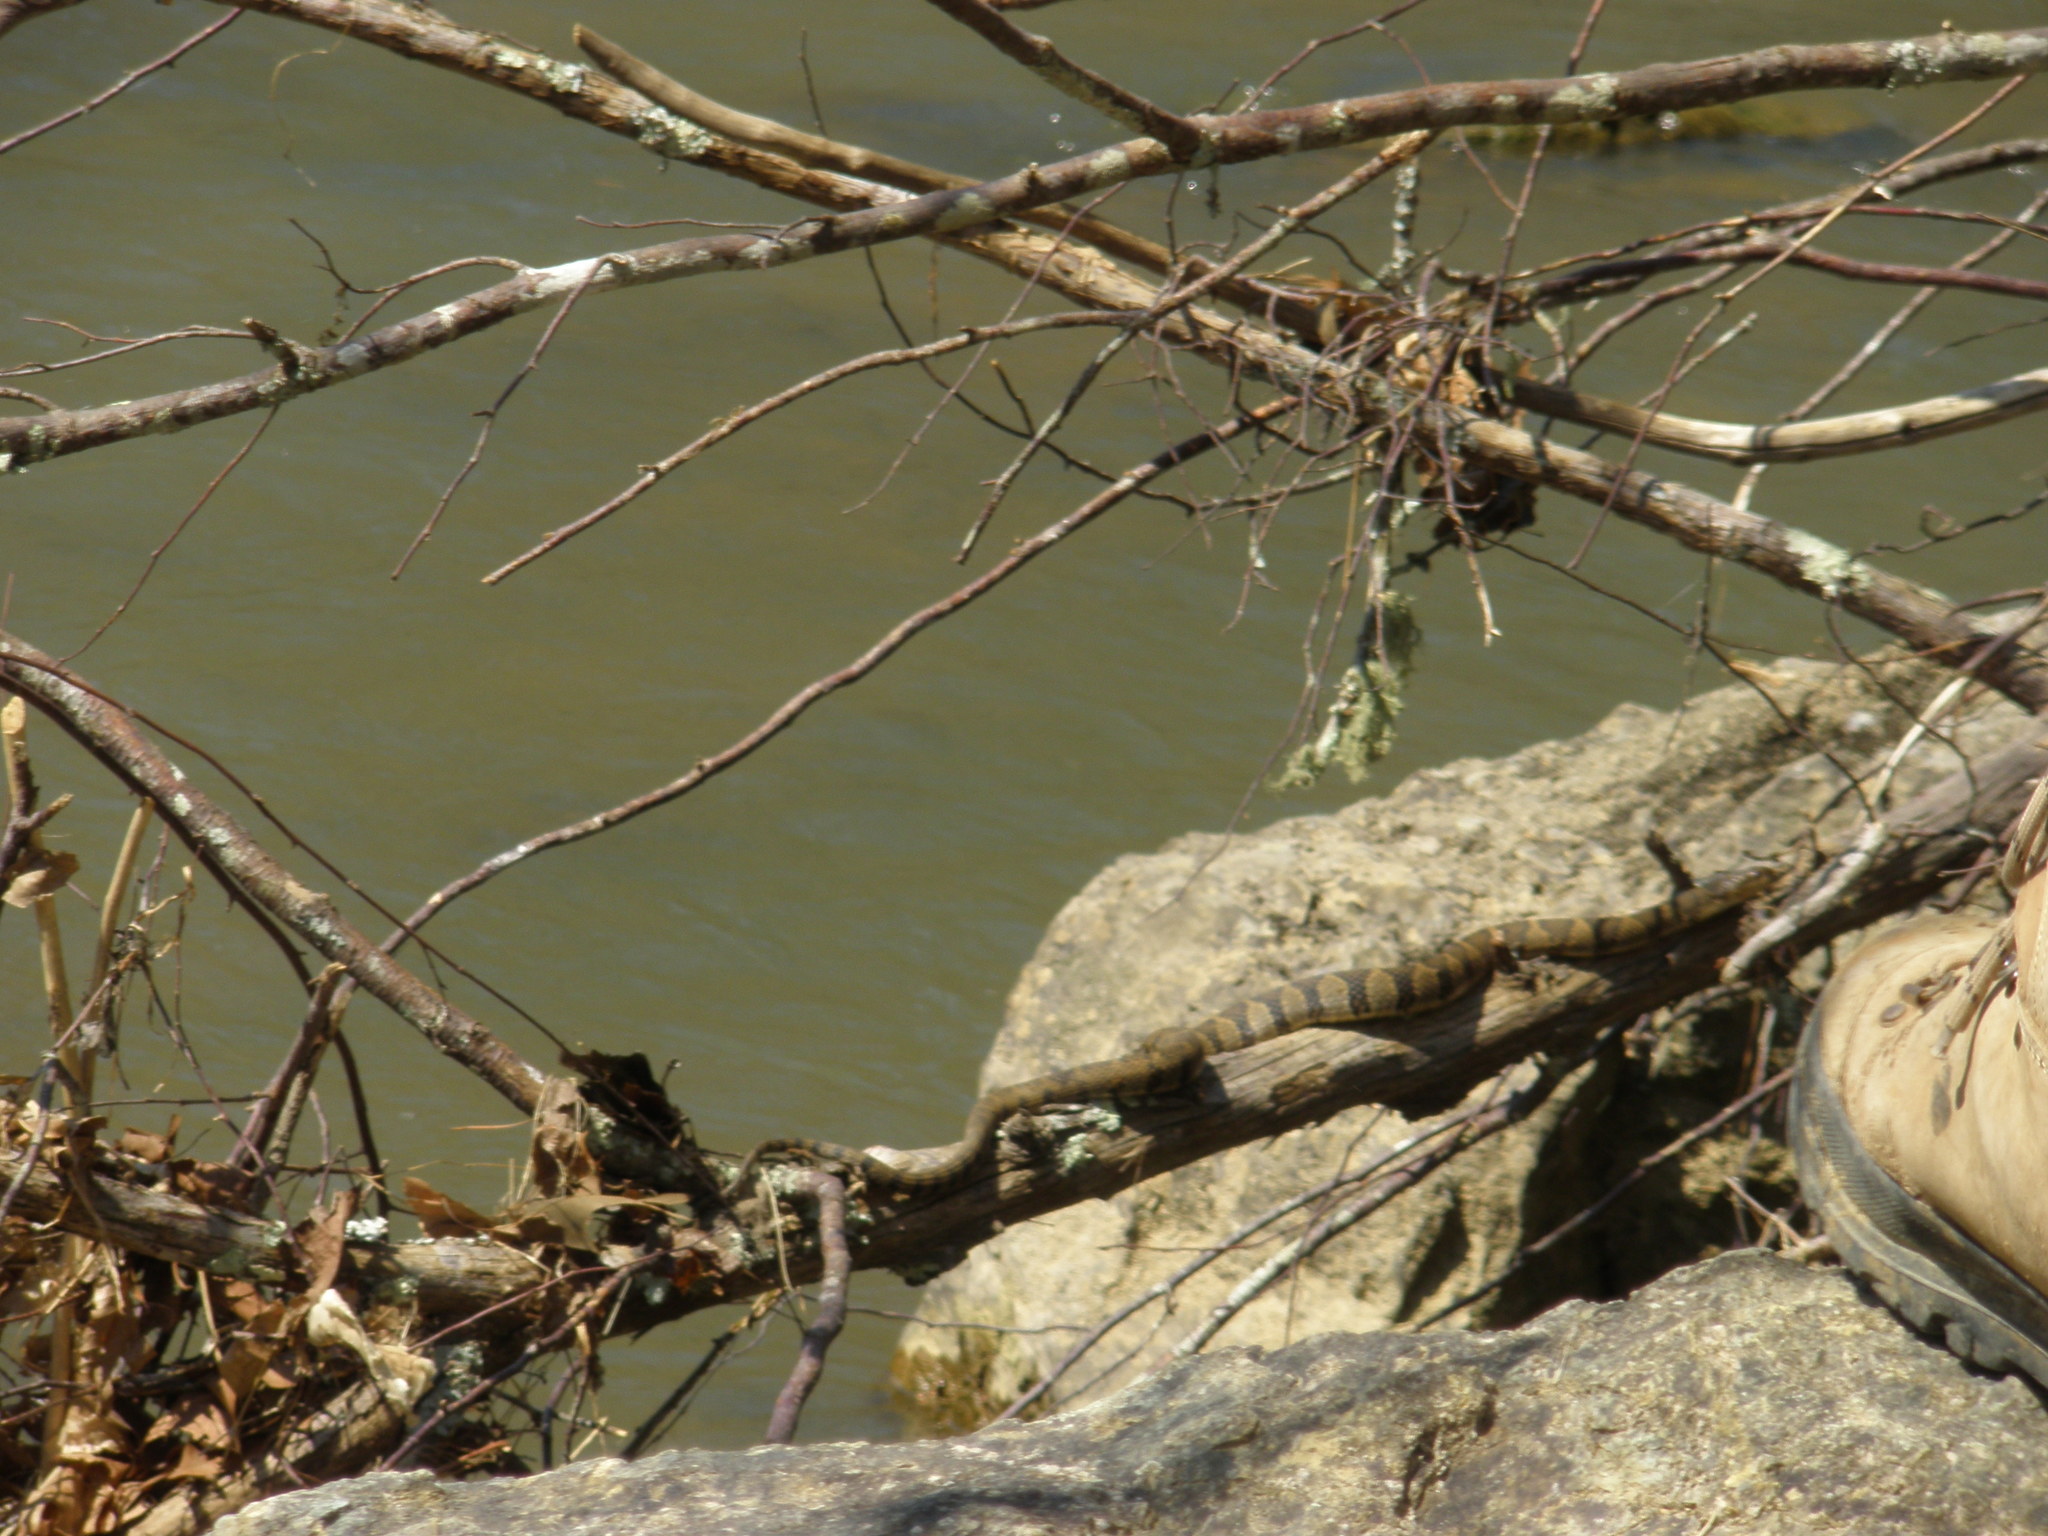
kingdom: Animalia
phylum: Chordata
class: Squamata
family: Colubridae
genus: Nerodia
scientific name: Nerodia sipedon
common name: Northern water snake
